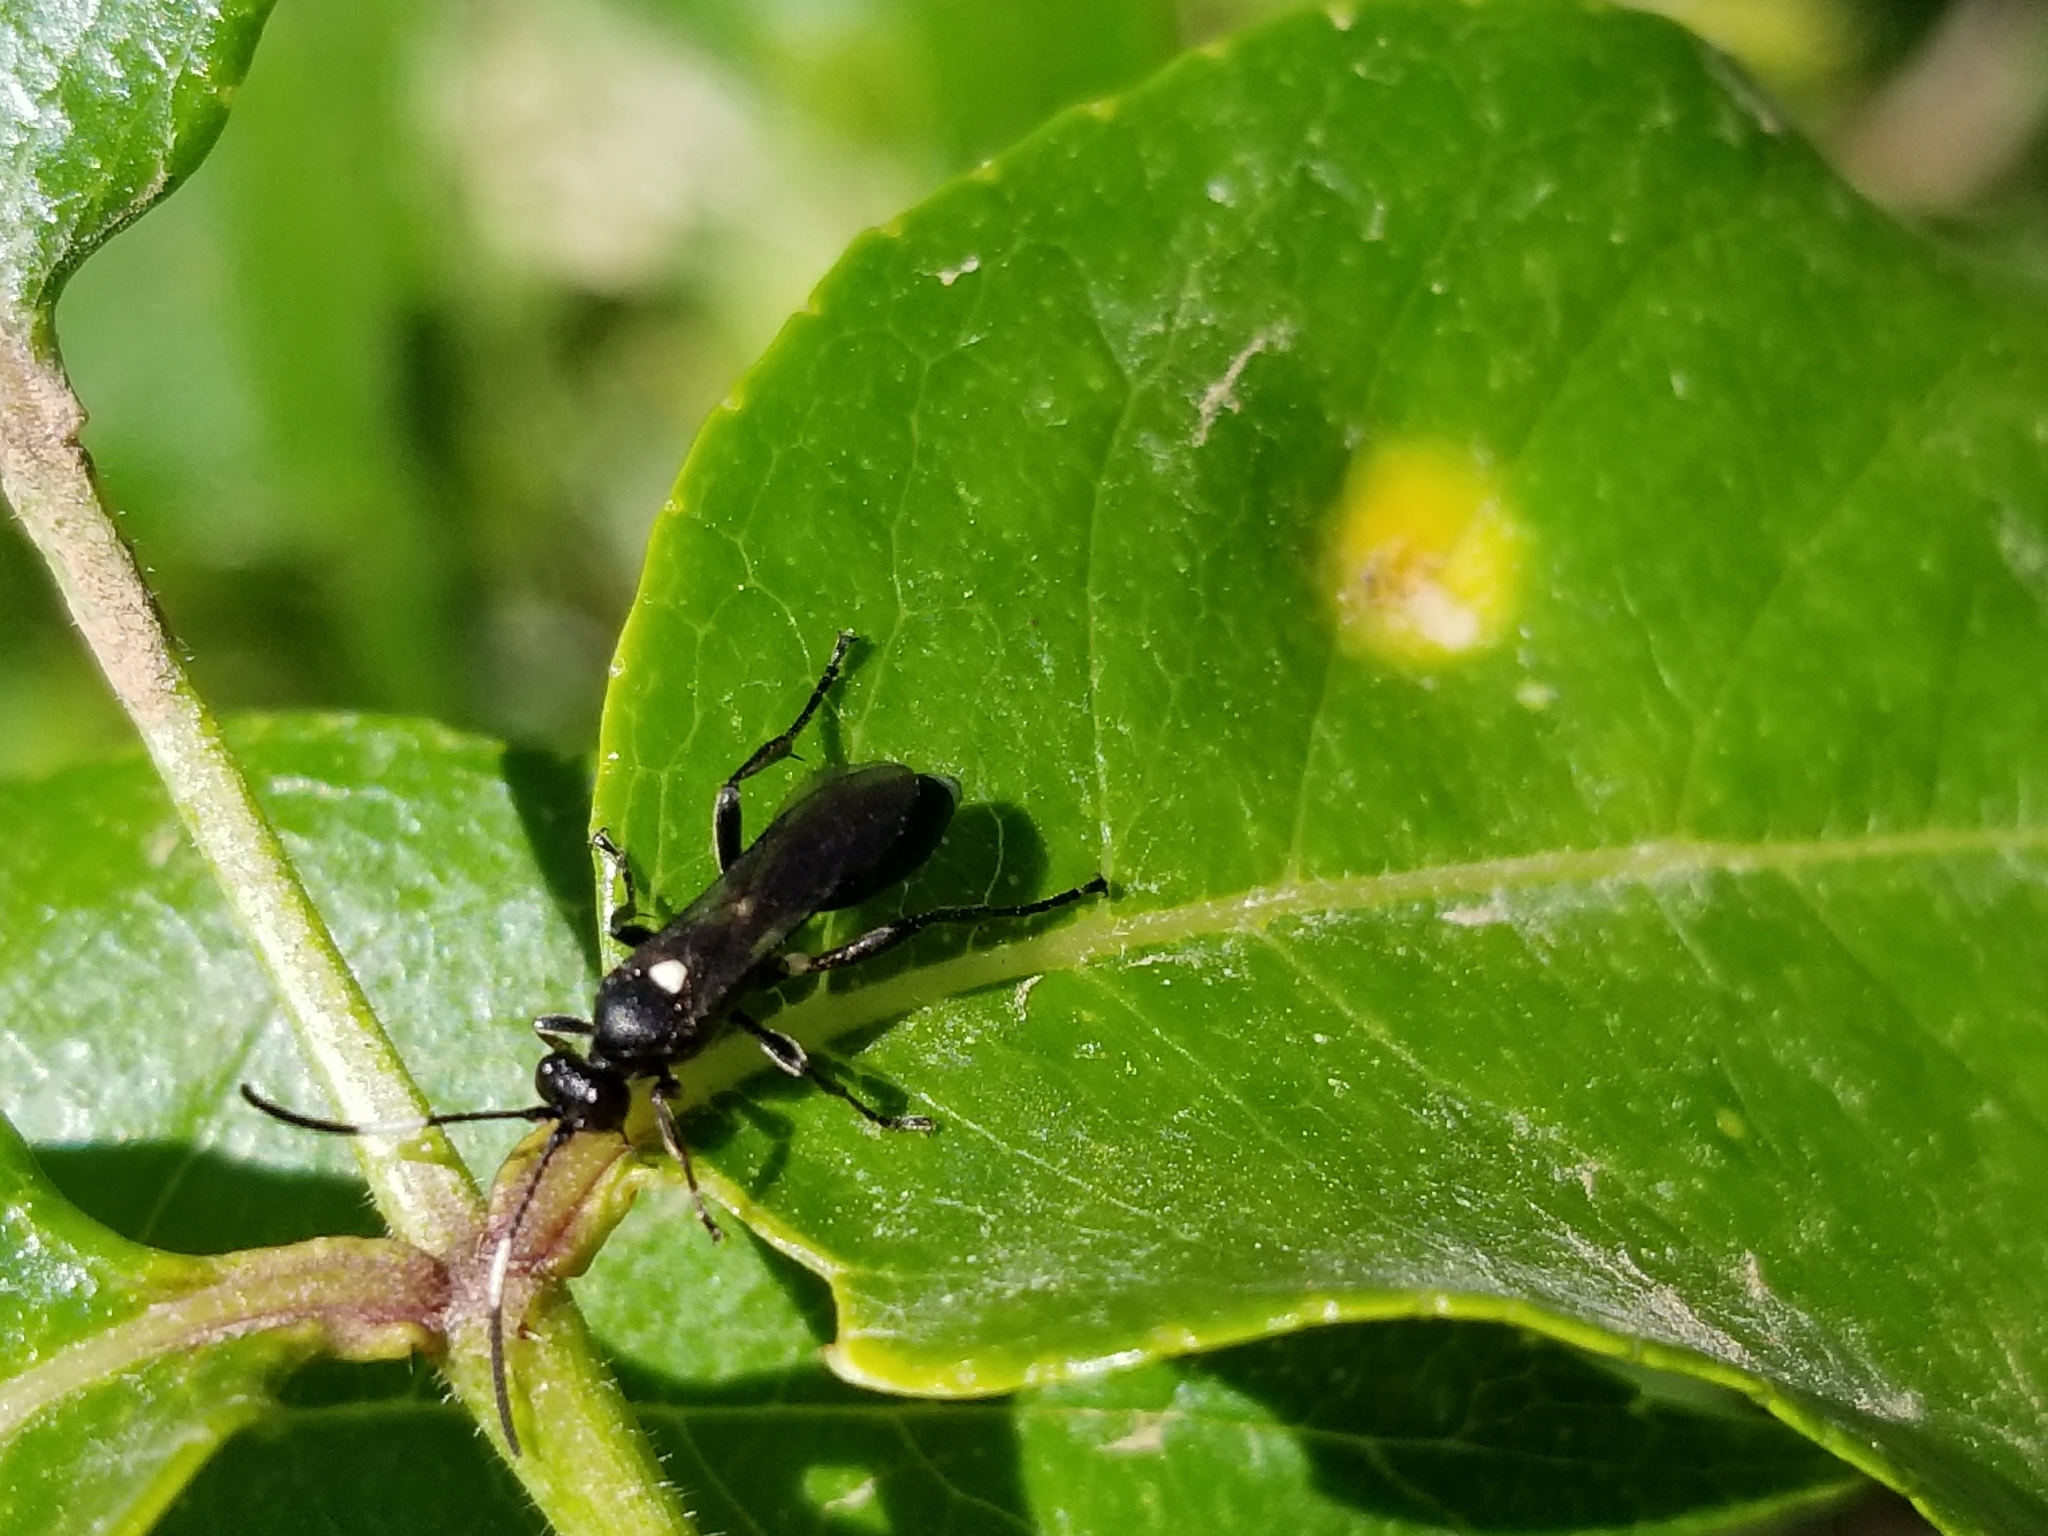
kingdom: Animalia
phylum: Arthropoda
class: Insecta
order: Hymenoptera
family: Ichneumonidae
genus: Vulgichneumon
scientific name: Vulgichneumon brevicinctor
